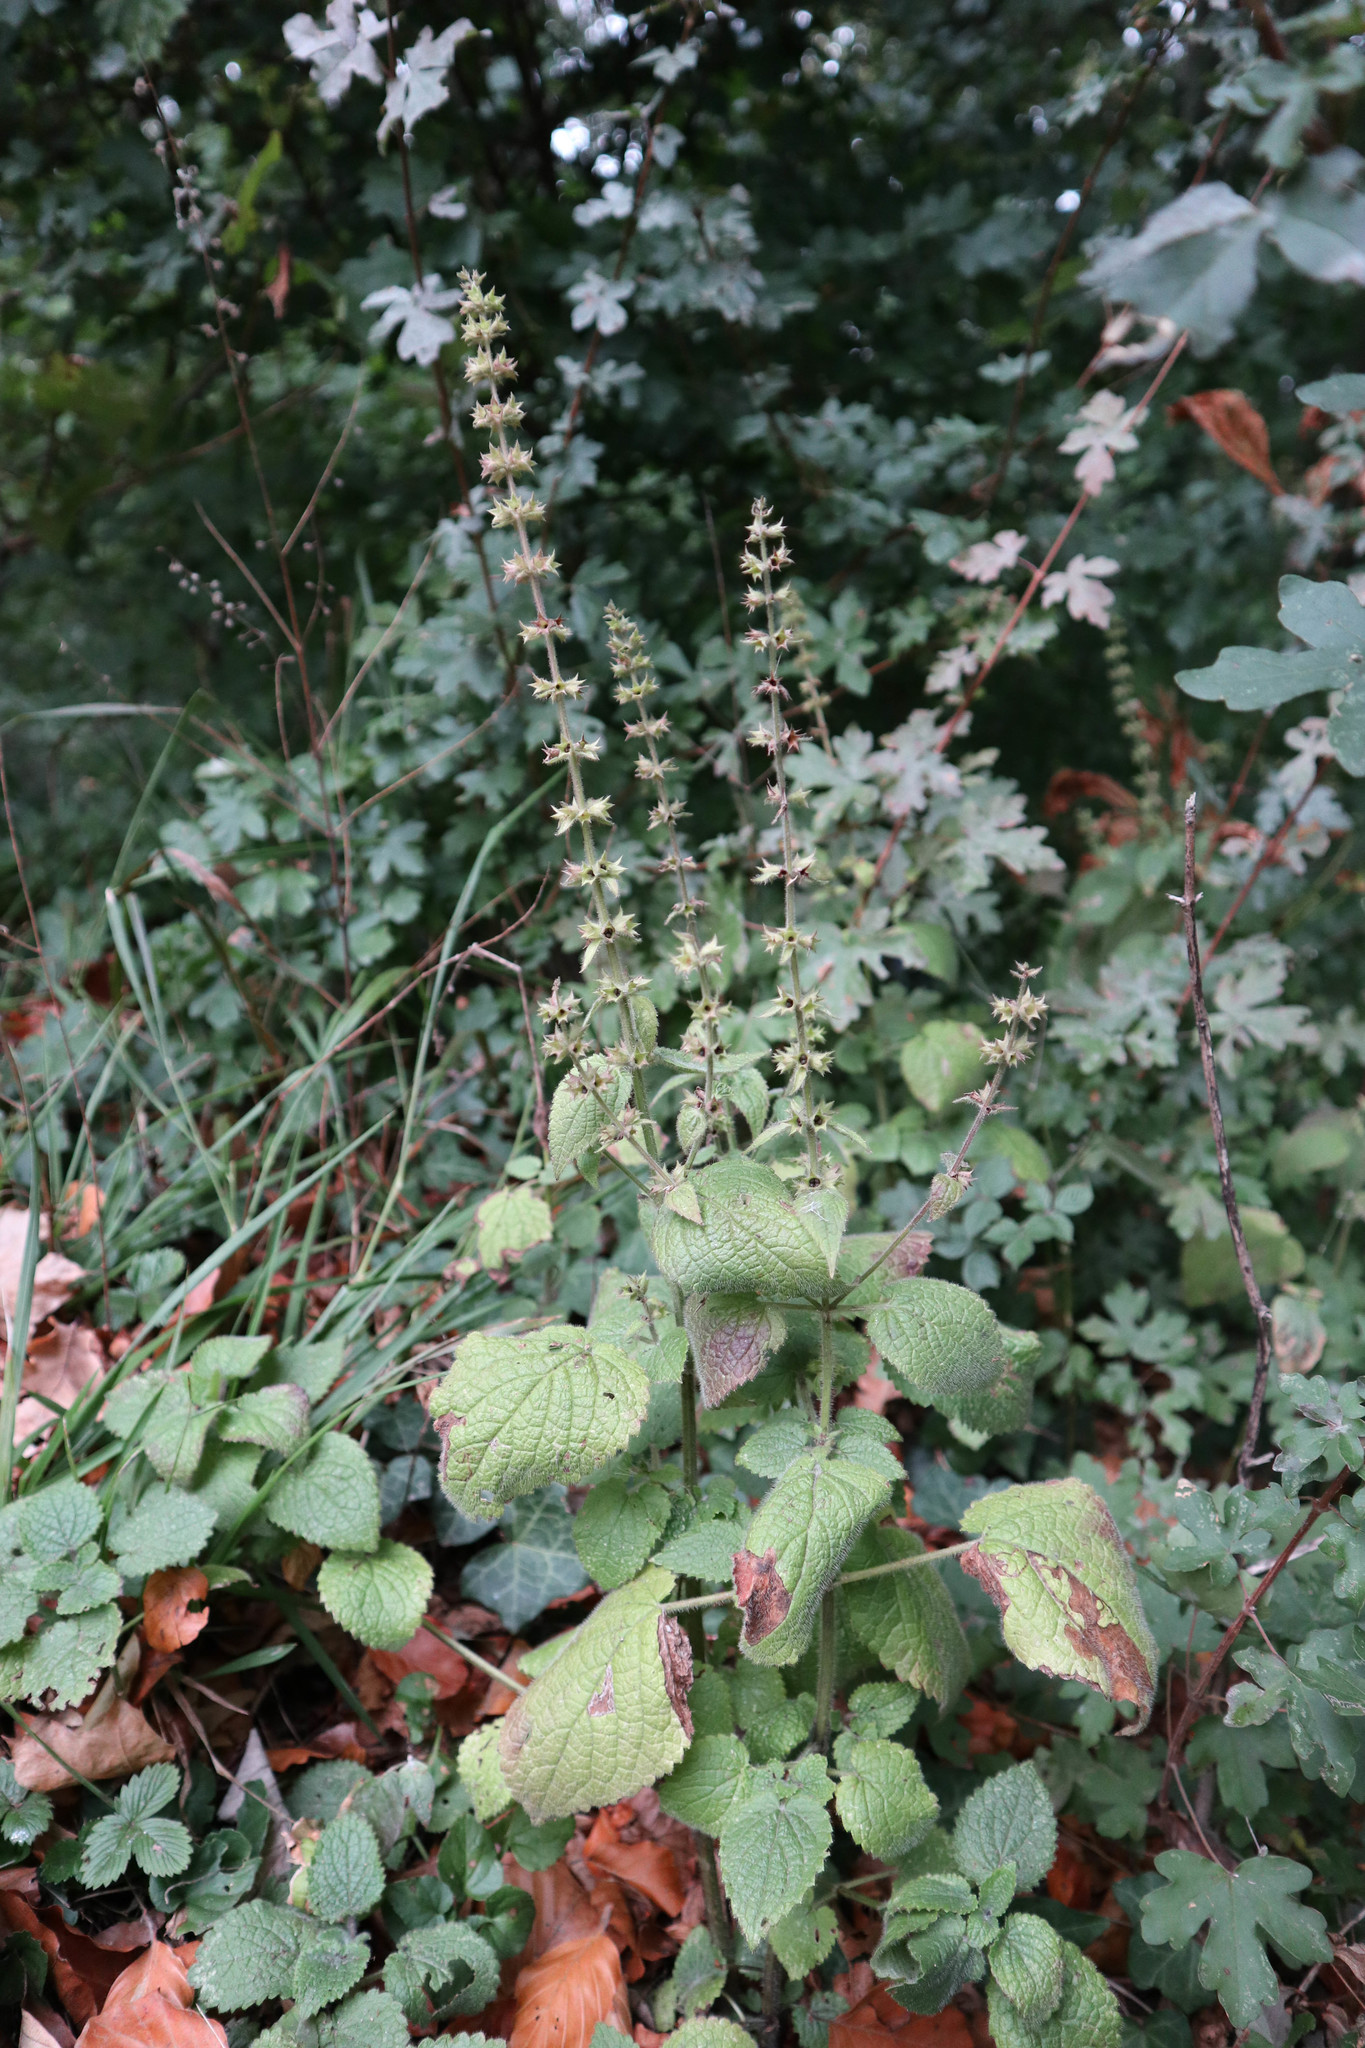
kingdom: Plantae
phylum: Tracheophyta
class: Magnoliopsida
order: Lamiales
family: Lamiaceae
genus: Stachys
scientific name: Stachys sylvatica
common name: Hedge woundwort
